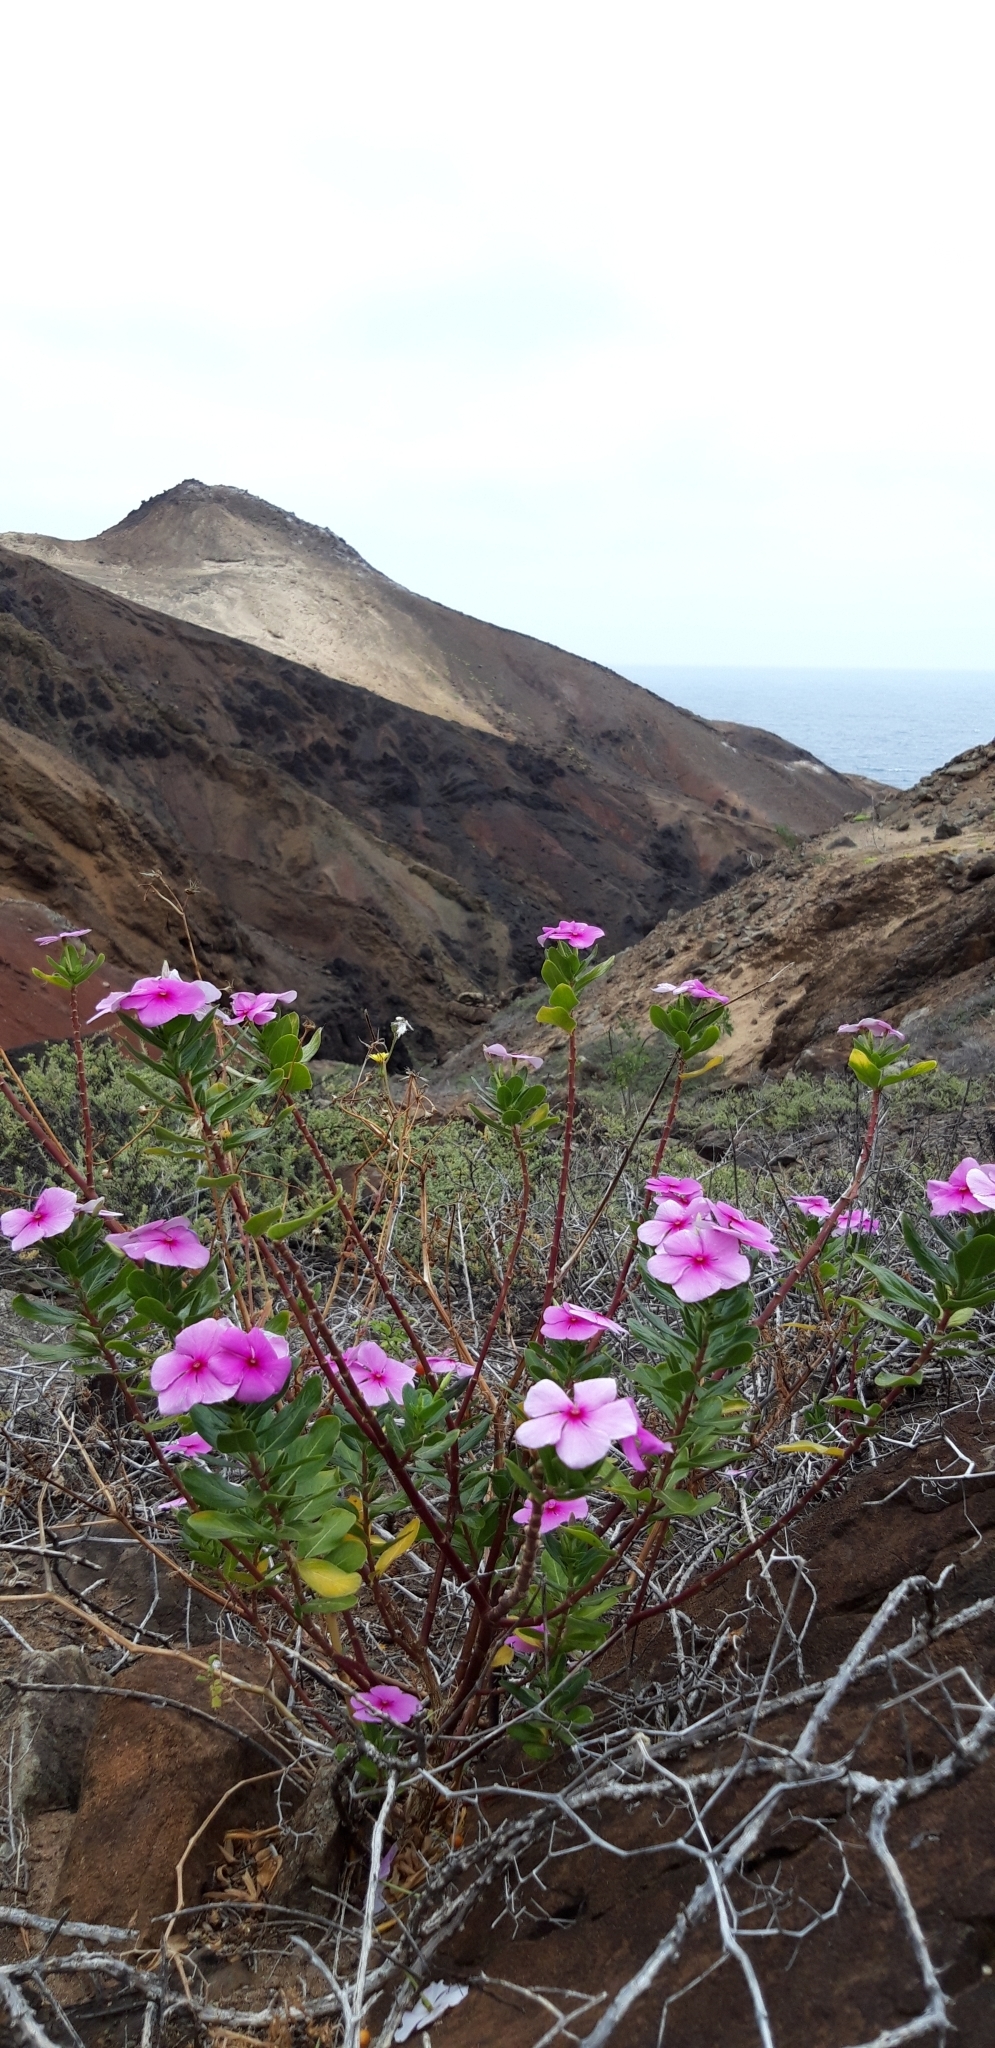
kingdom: Plantae
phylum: Tracheophyta
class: Magnoliopsida
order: Gentianales
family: Apocynaceae
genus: Catharanthus
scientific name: Catharanthus roseus
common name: Madagascar periwinkle
